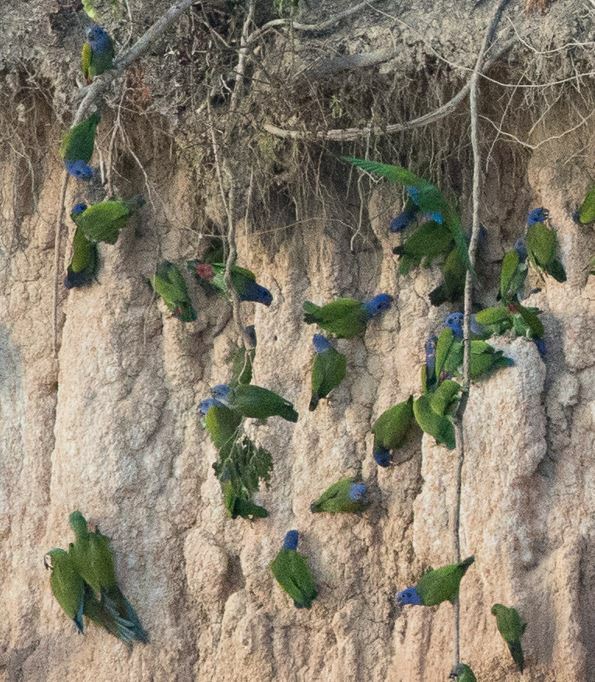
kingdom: Animalia
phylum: Chordata
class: Aves
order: Psittaciformes
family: Psittacidae
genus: Pionus
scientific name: Pionus menstruus
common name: Blue-headed parrot
